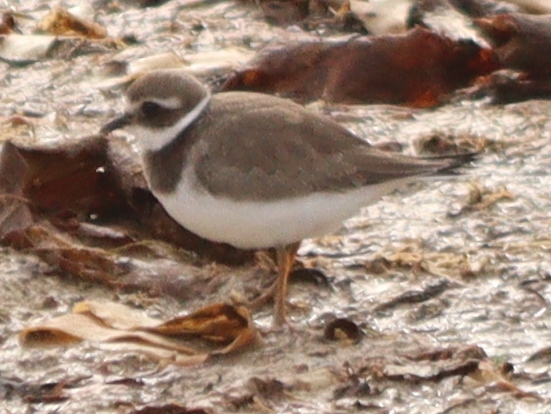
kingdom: Animalia
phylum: Chordata
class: Aves
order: Charadriiformes
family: Charadriidae
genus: Charadrius
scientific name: Charadrius hiaticula
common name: Common ringed plover
